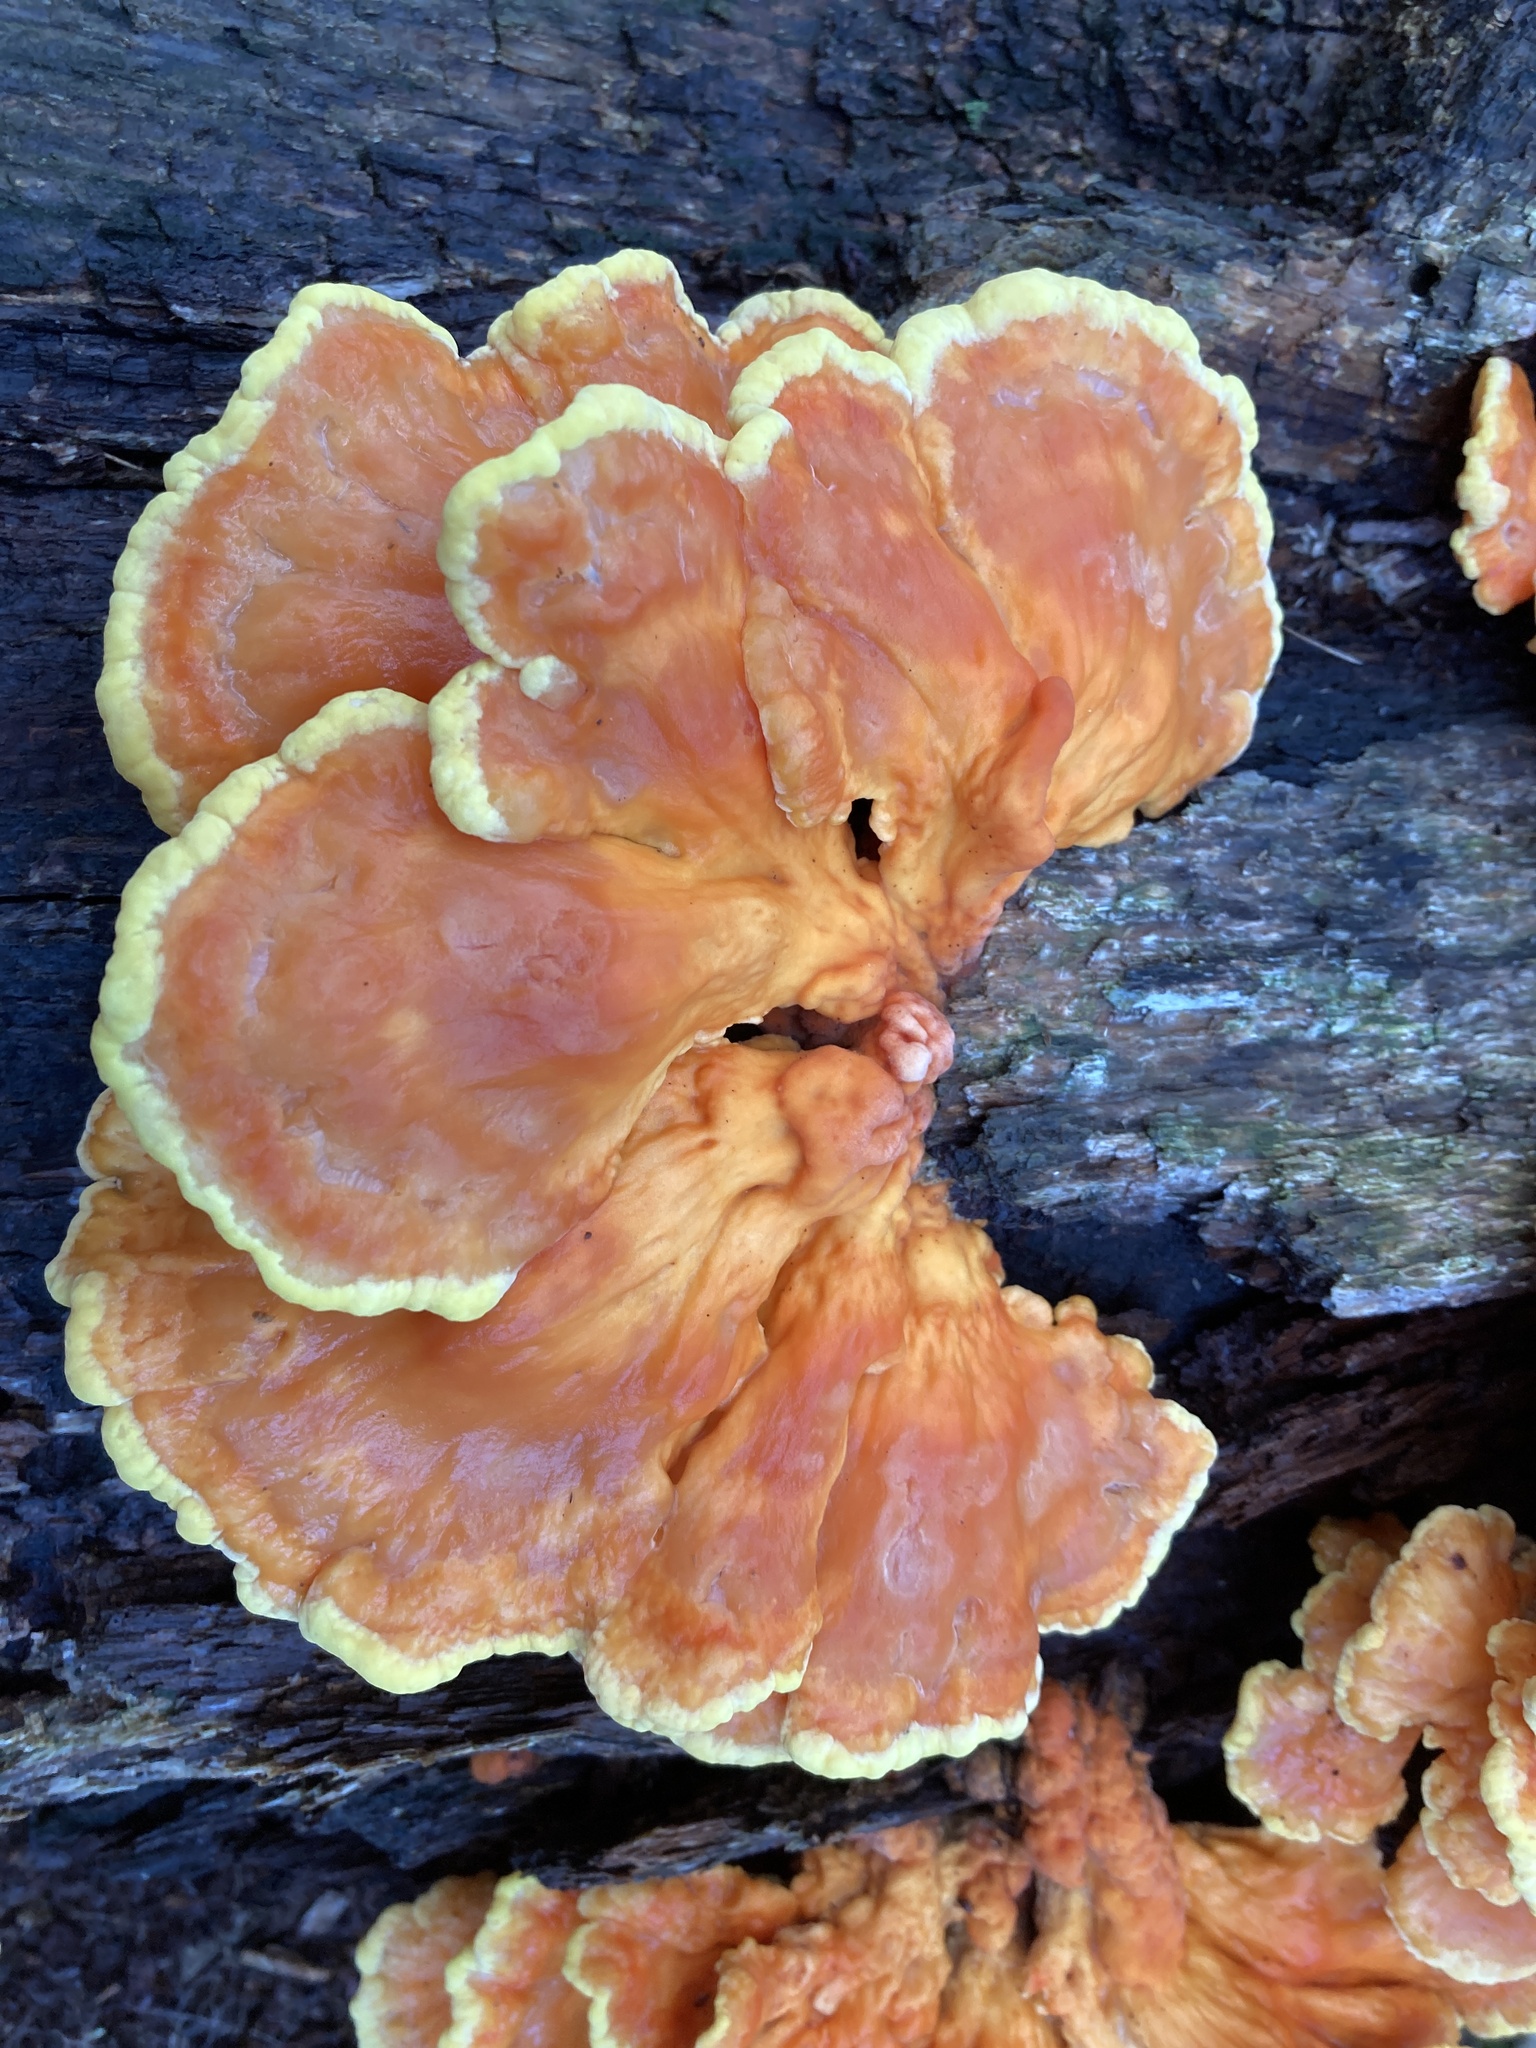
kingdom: Fungi
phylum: Basidiomycota
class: Agaricomycetes
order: Polyporales
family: Laetiporaceae
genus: Laetiporus
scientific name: Laetiporus sulphureus
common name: Chicken of the woods
